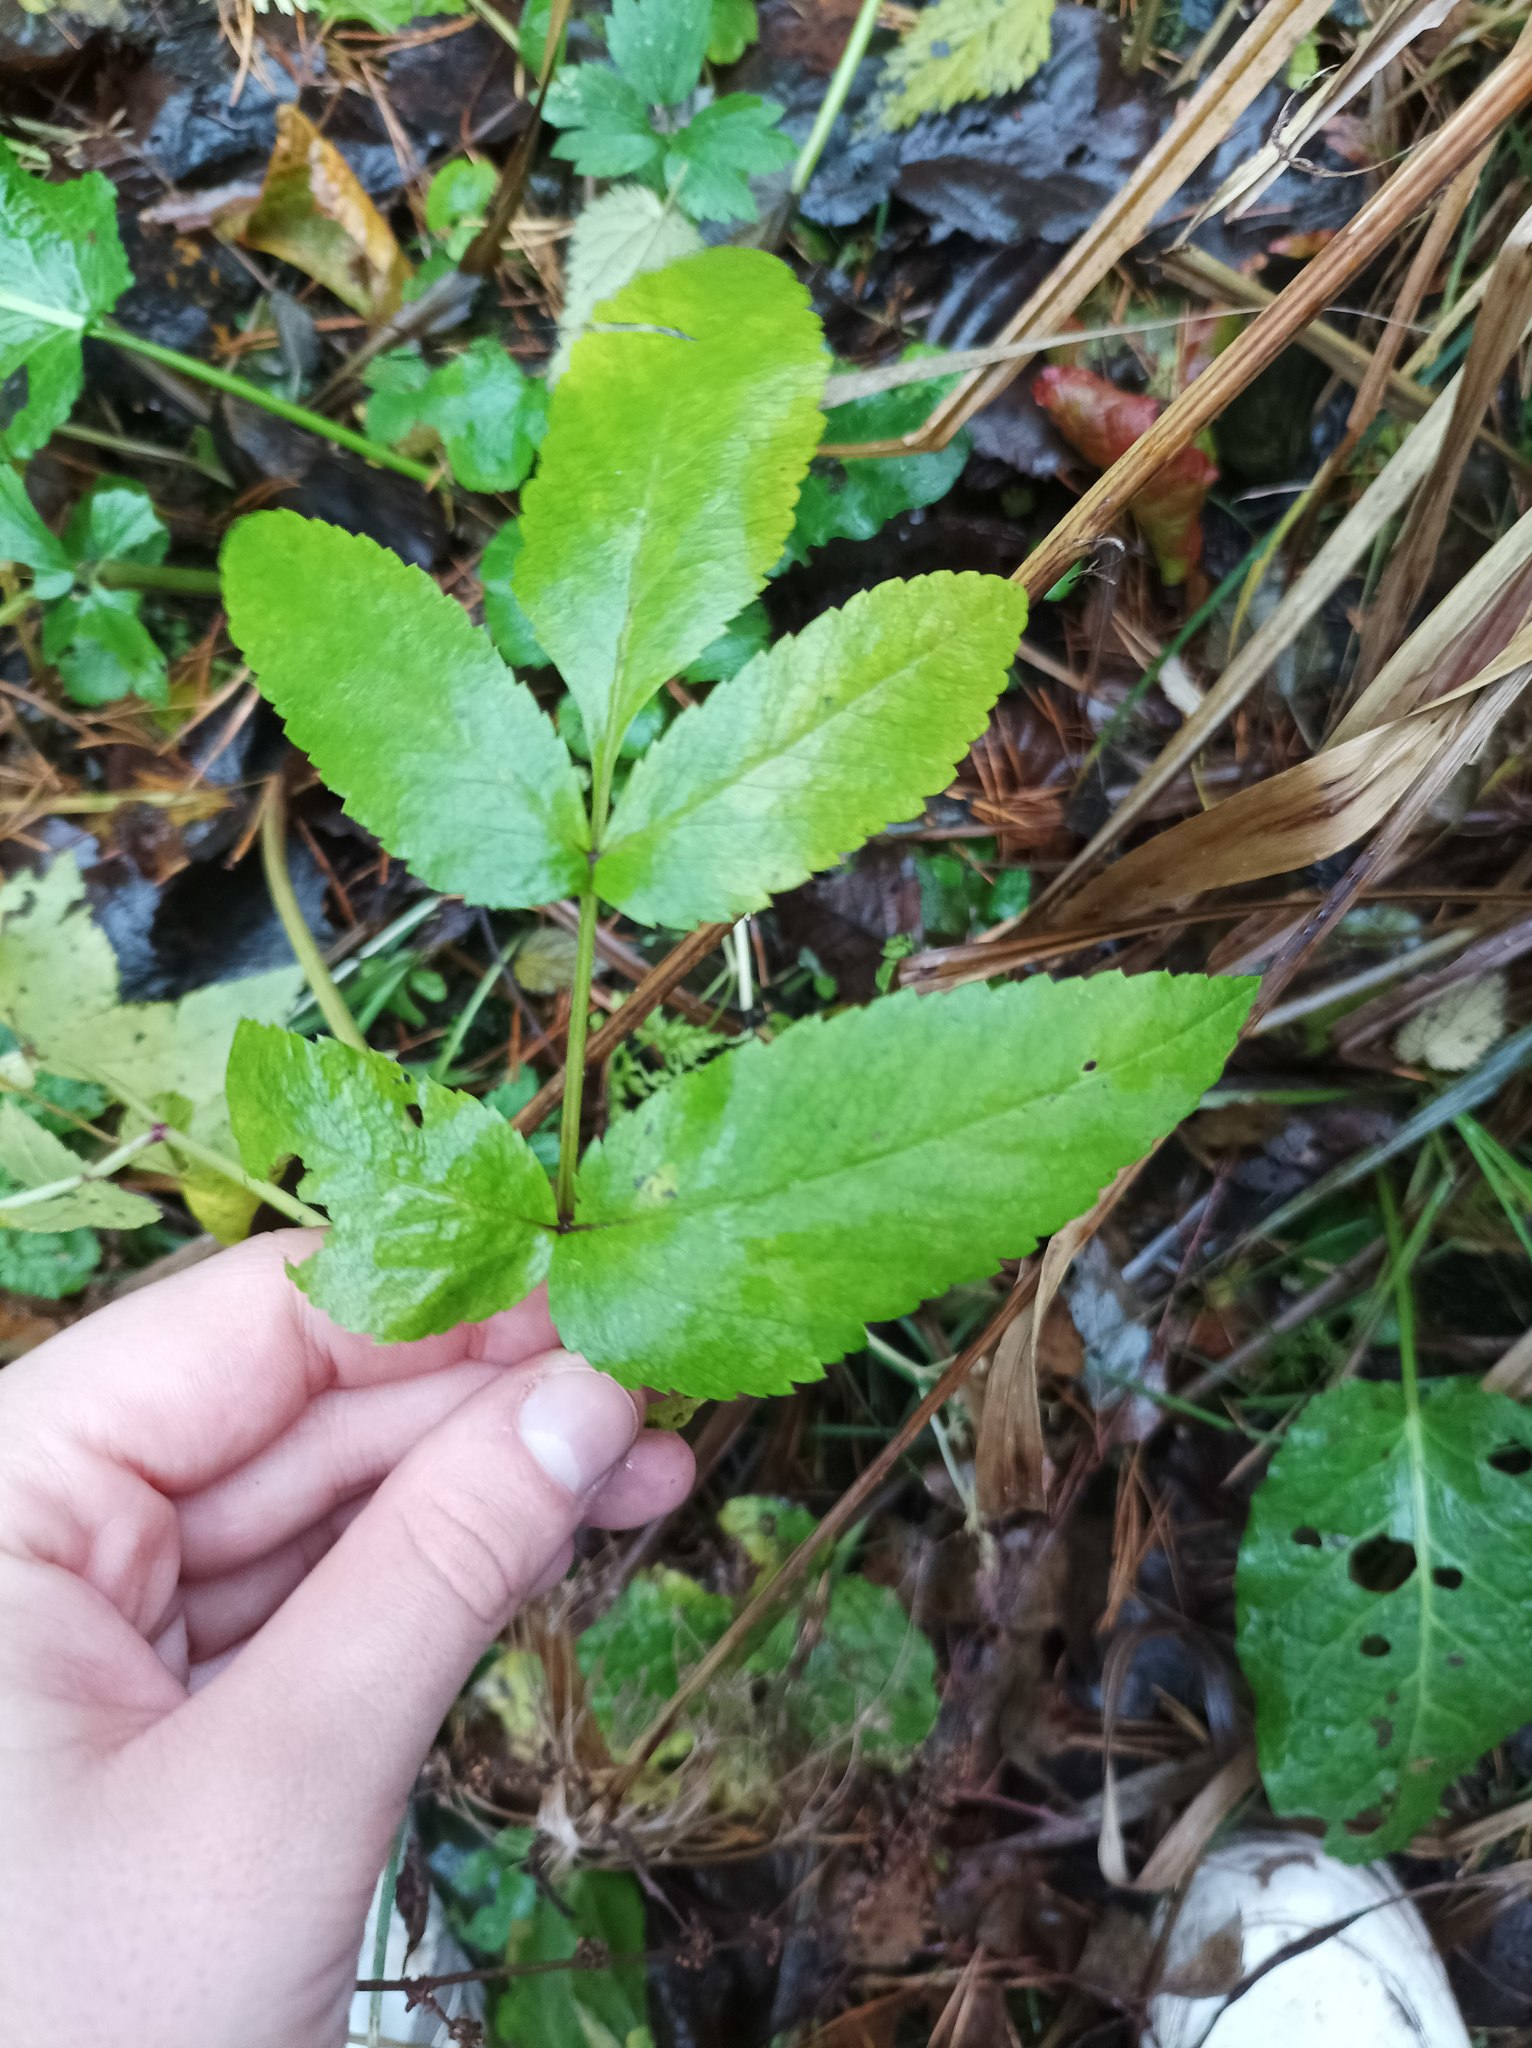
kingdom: Plantae
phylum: Tracheophyta
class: Magnoliopsida
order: Apiales
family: Apiaceae
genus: Aegopodium
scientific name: Aegopodium podagraria
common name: Ground-elder
